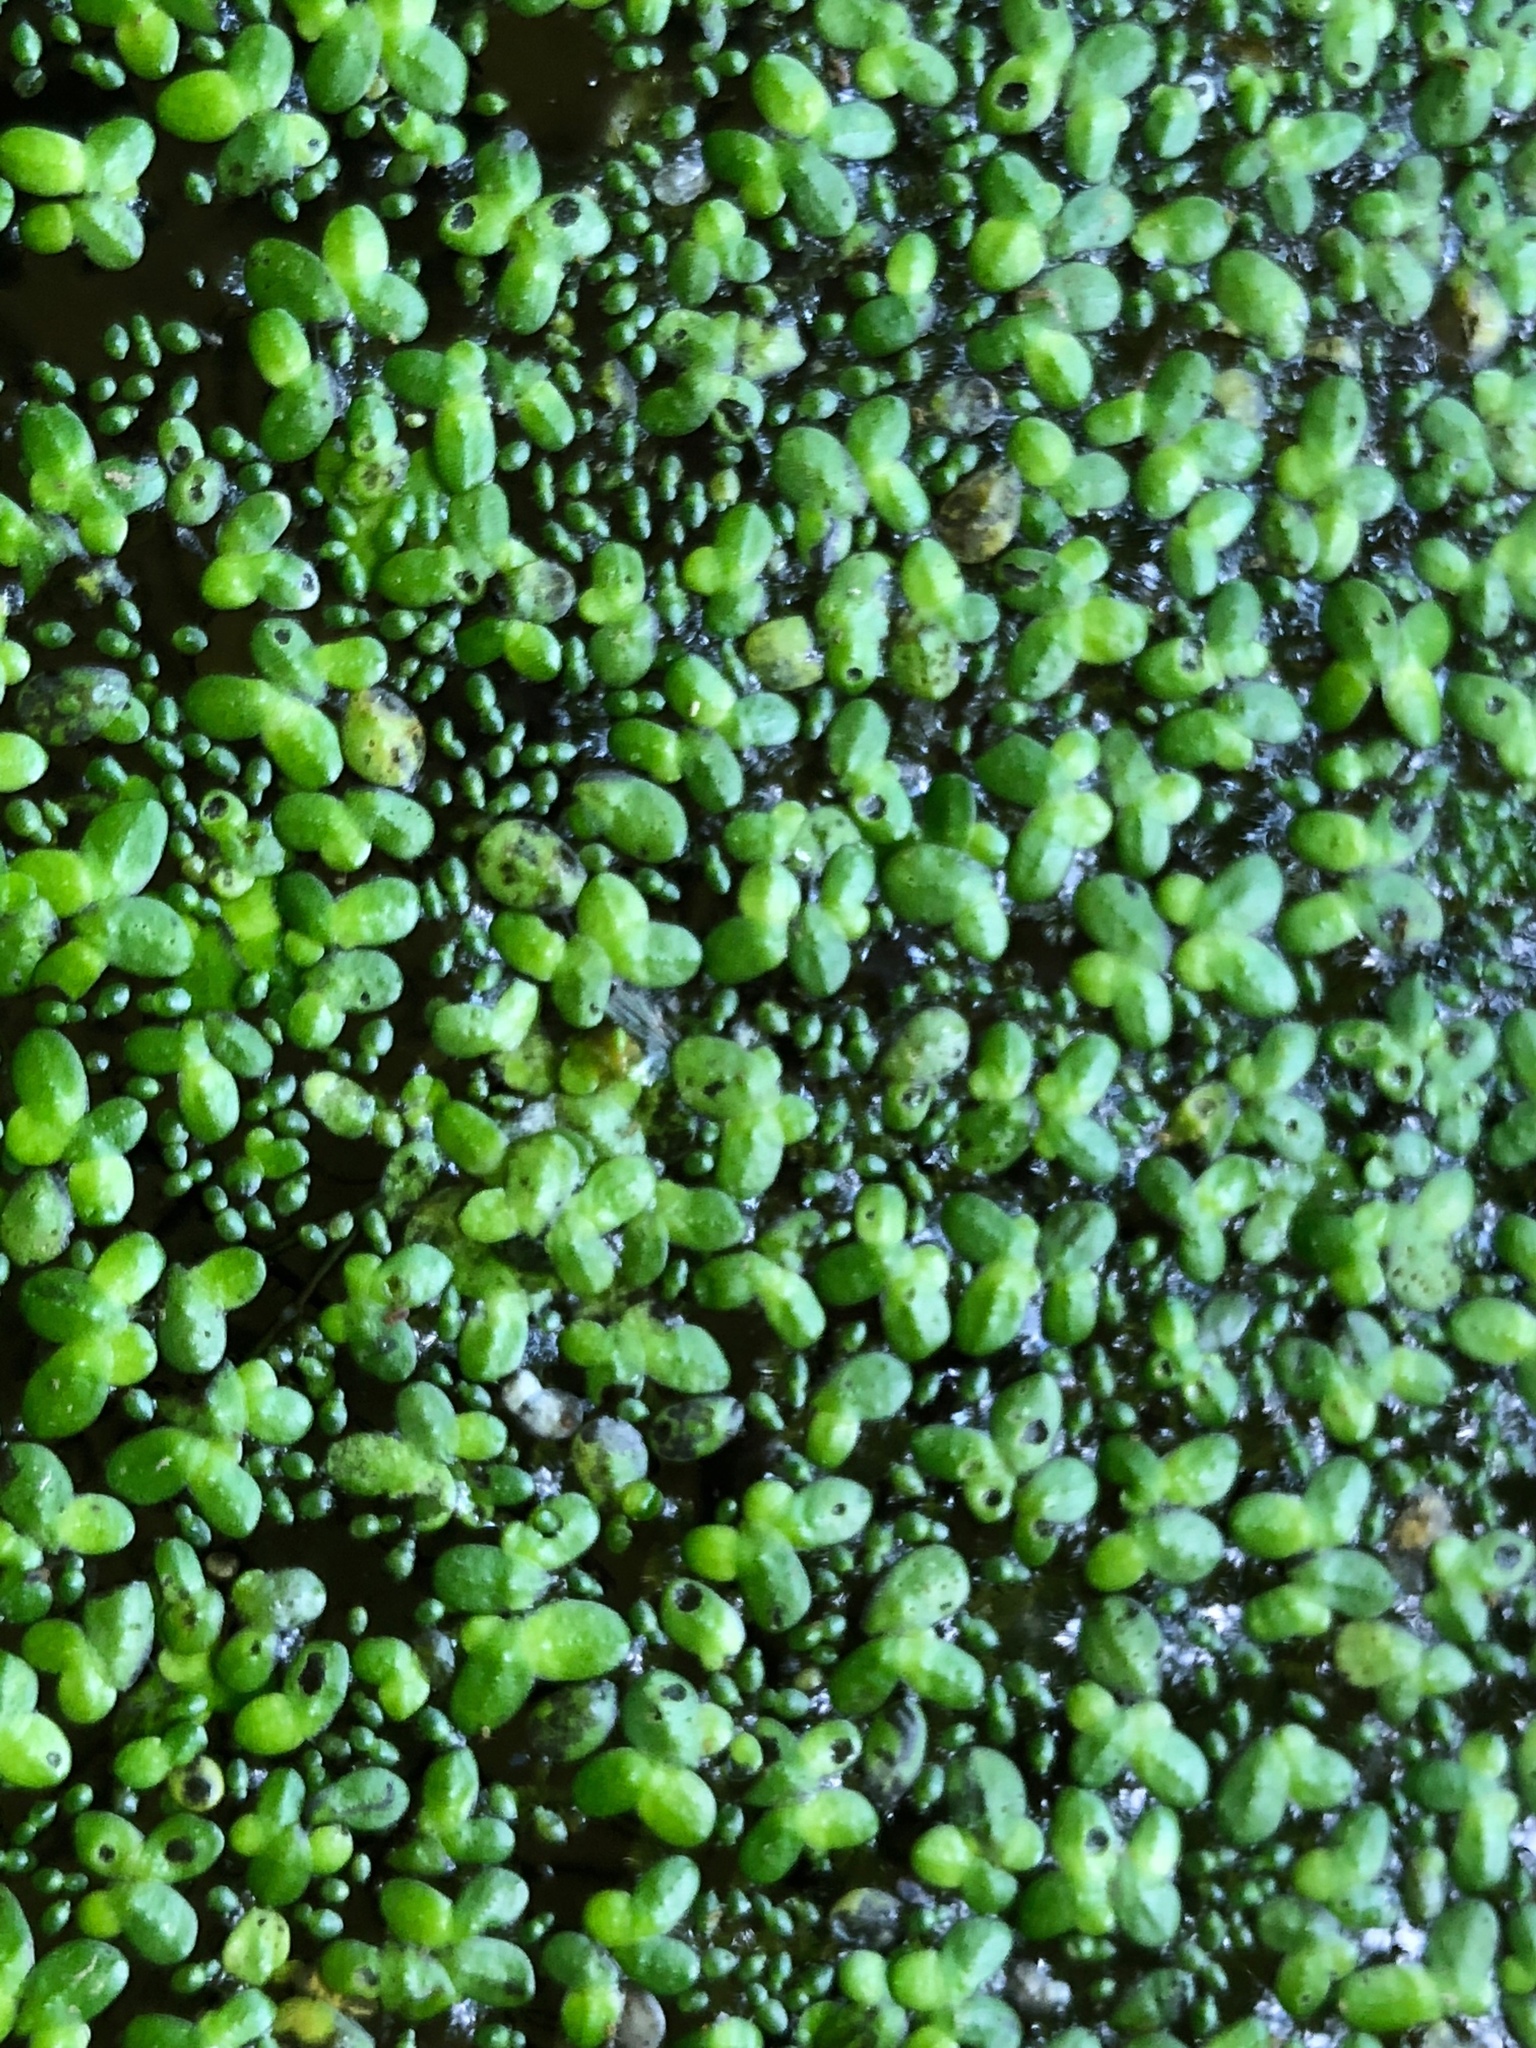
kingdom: Plantae
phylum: Tracheophyta
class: Liliopsida
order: Alismatales
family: Araceae
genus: Lemna
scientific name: Lemna minor
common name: Common duckweed
